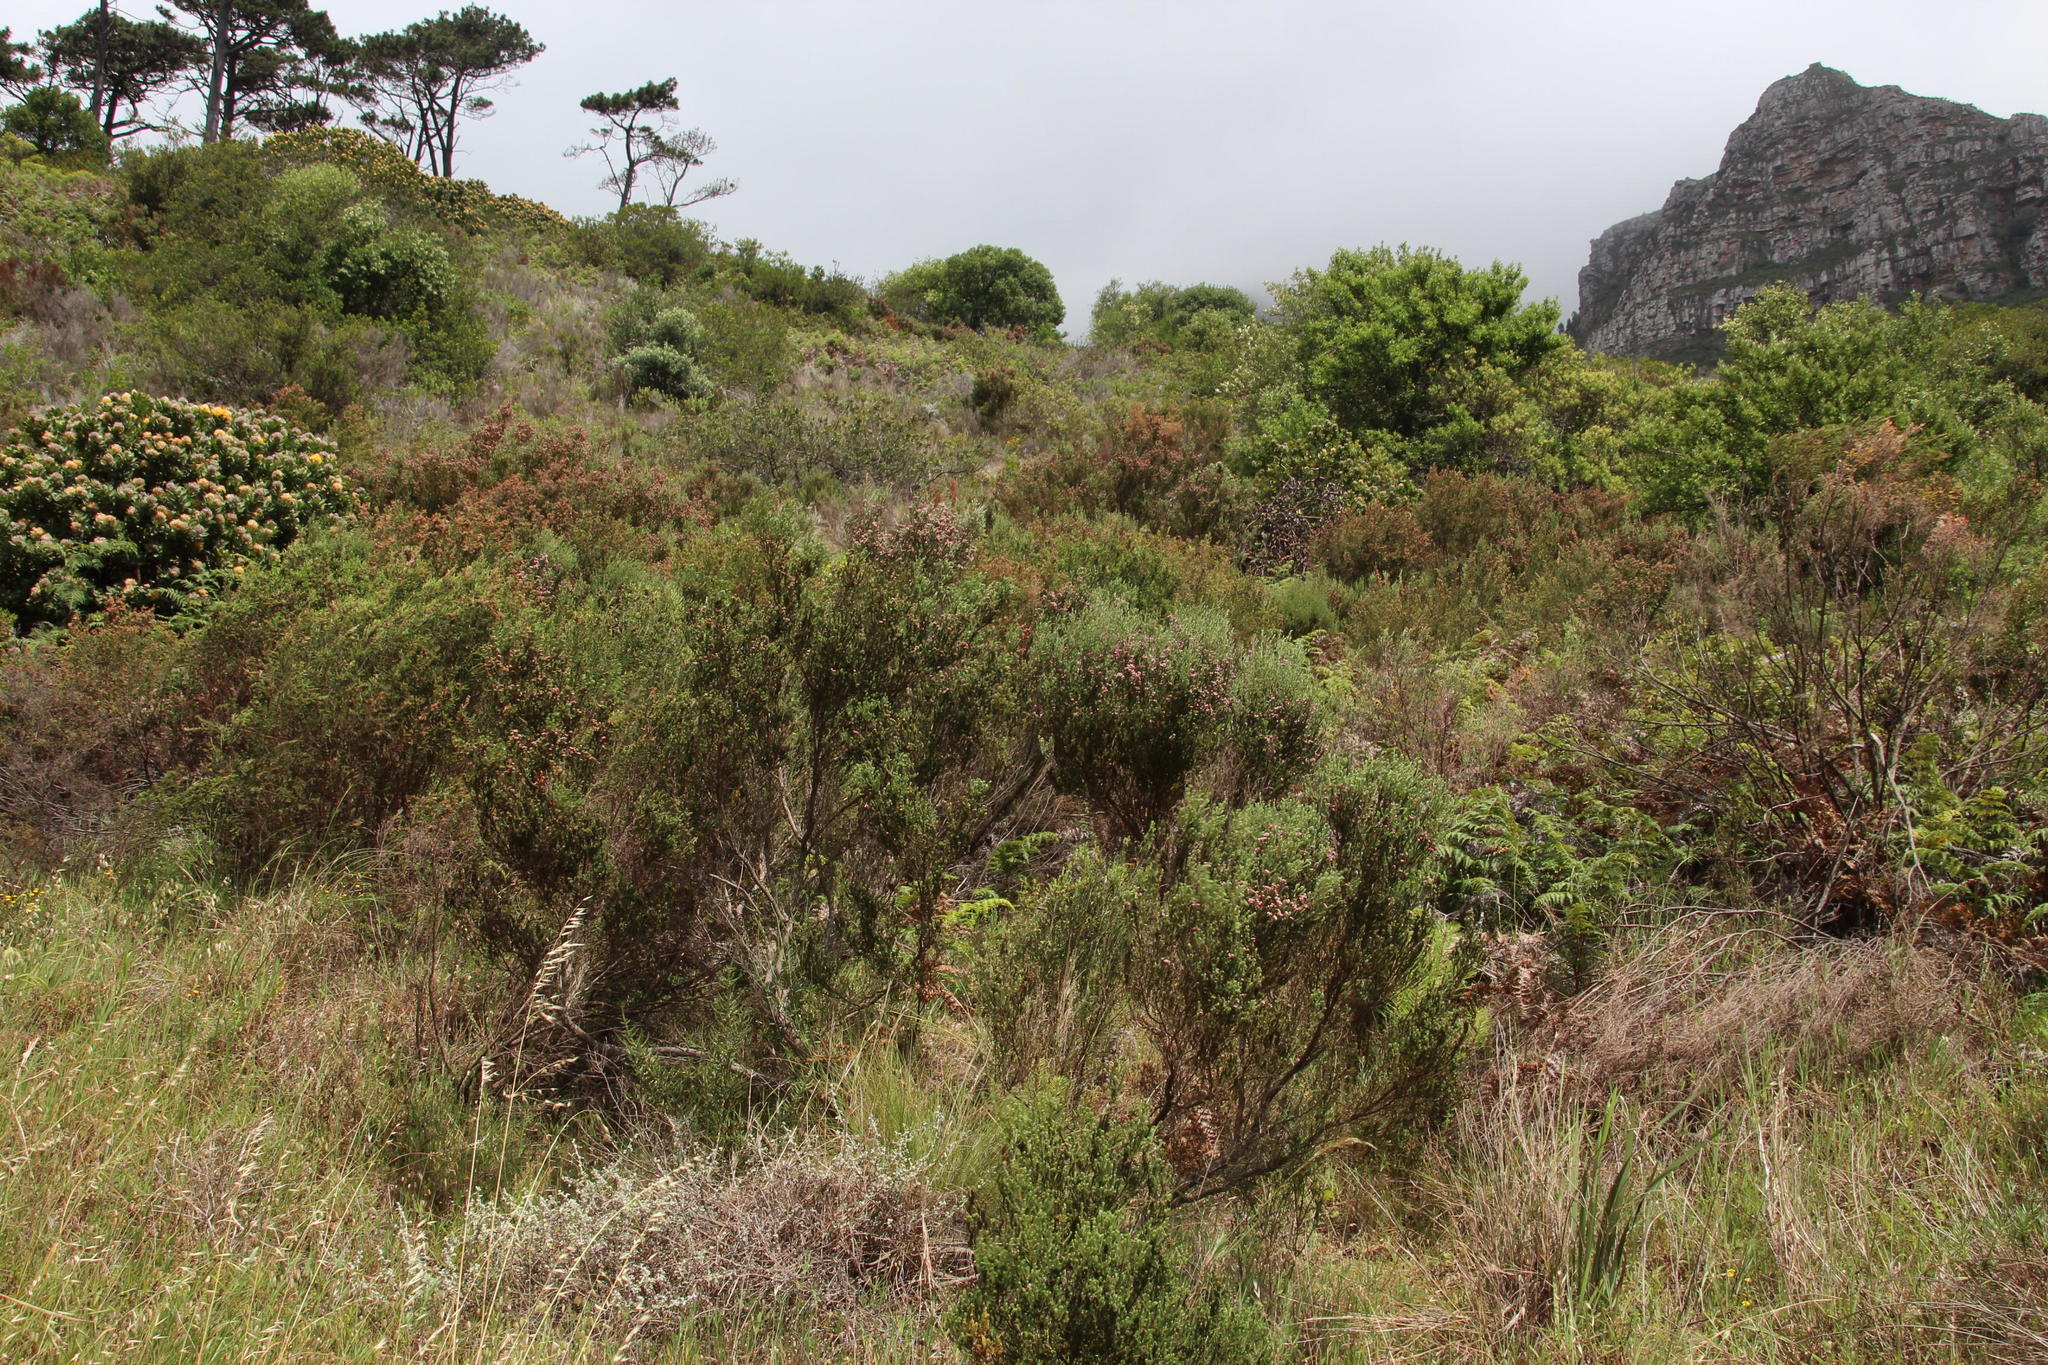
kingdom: Plantae
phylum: Tracheophyta
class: Magnoliopsida
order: Ericales
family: Ericaceae
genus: Erica
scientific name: Erica baccans
